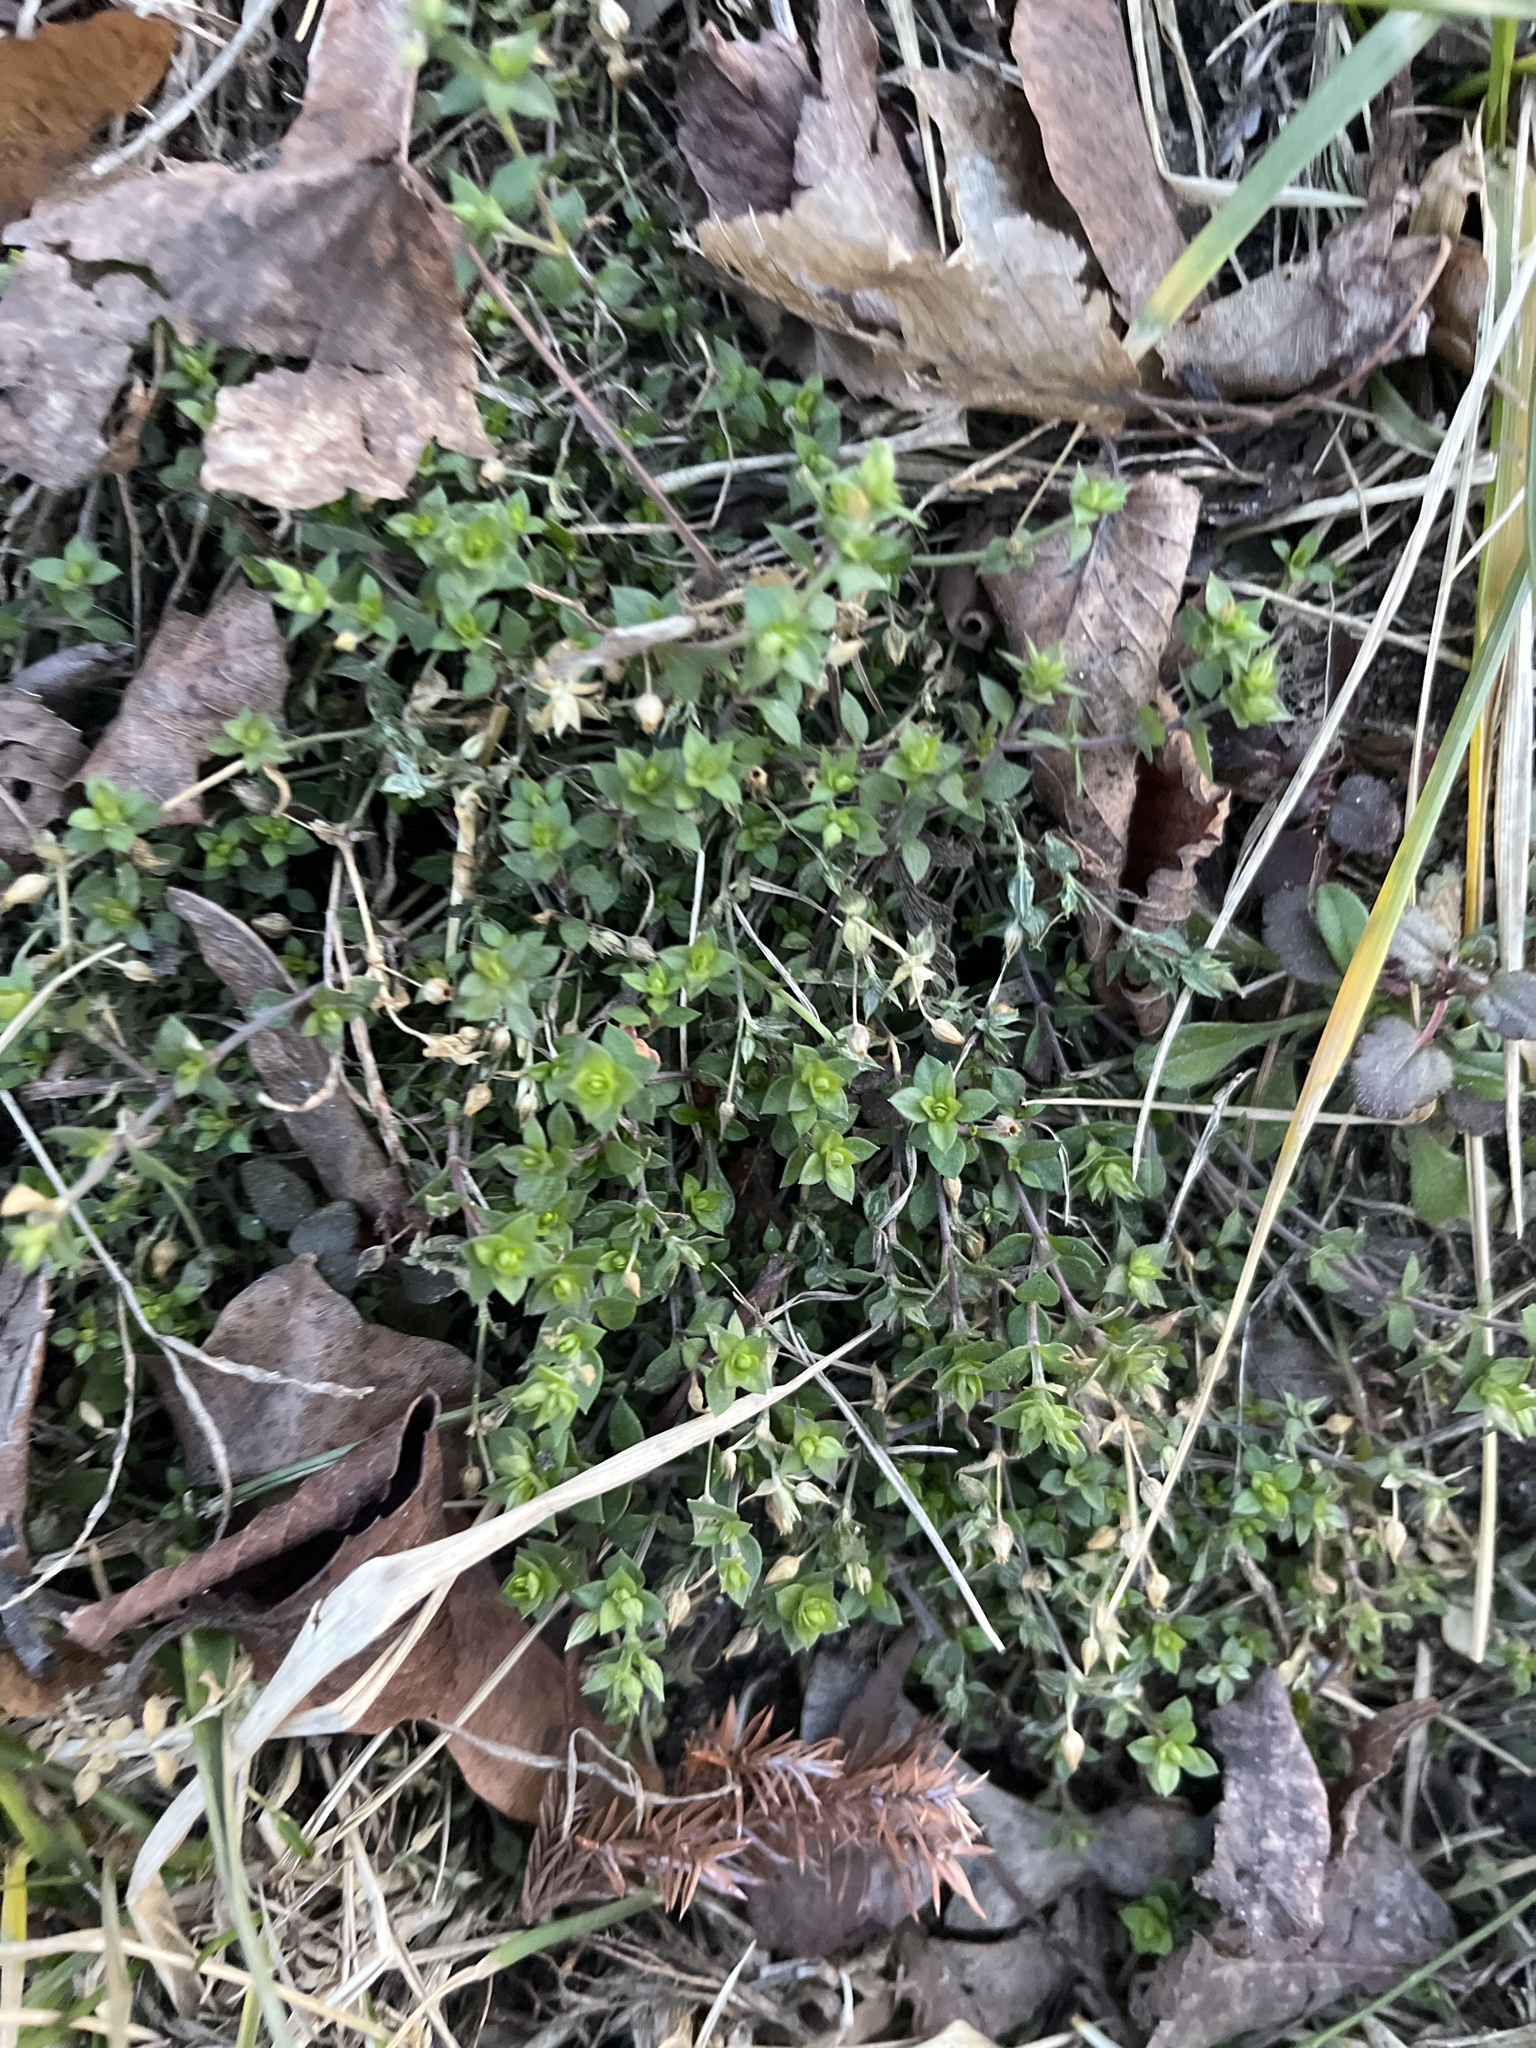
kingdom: Plantae
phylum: Tracheophyta
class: Magnoliopsida
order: Caryophyllales
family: Caryophyllaceae
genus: Stellaria
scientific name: Stellaria media
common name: Common chickweed
